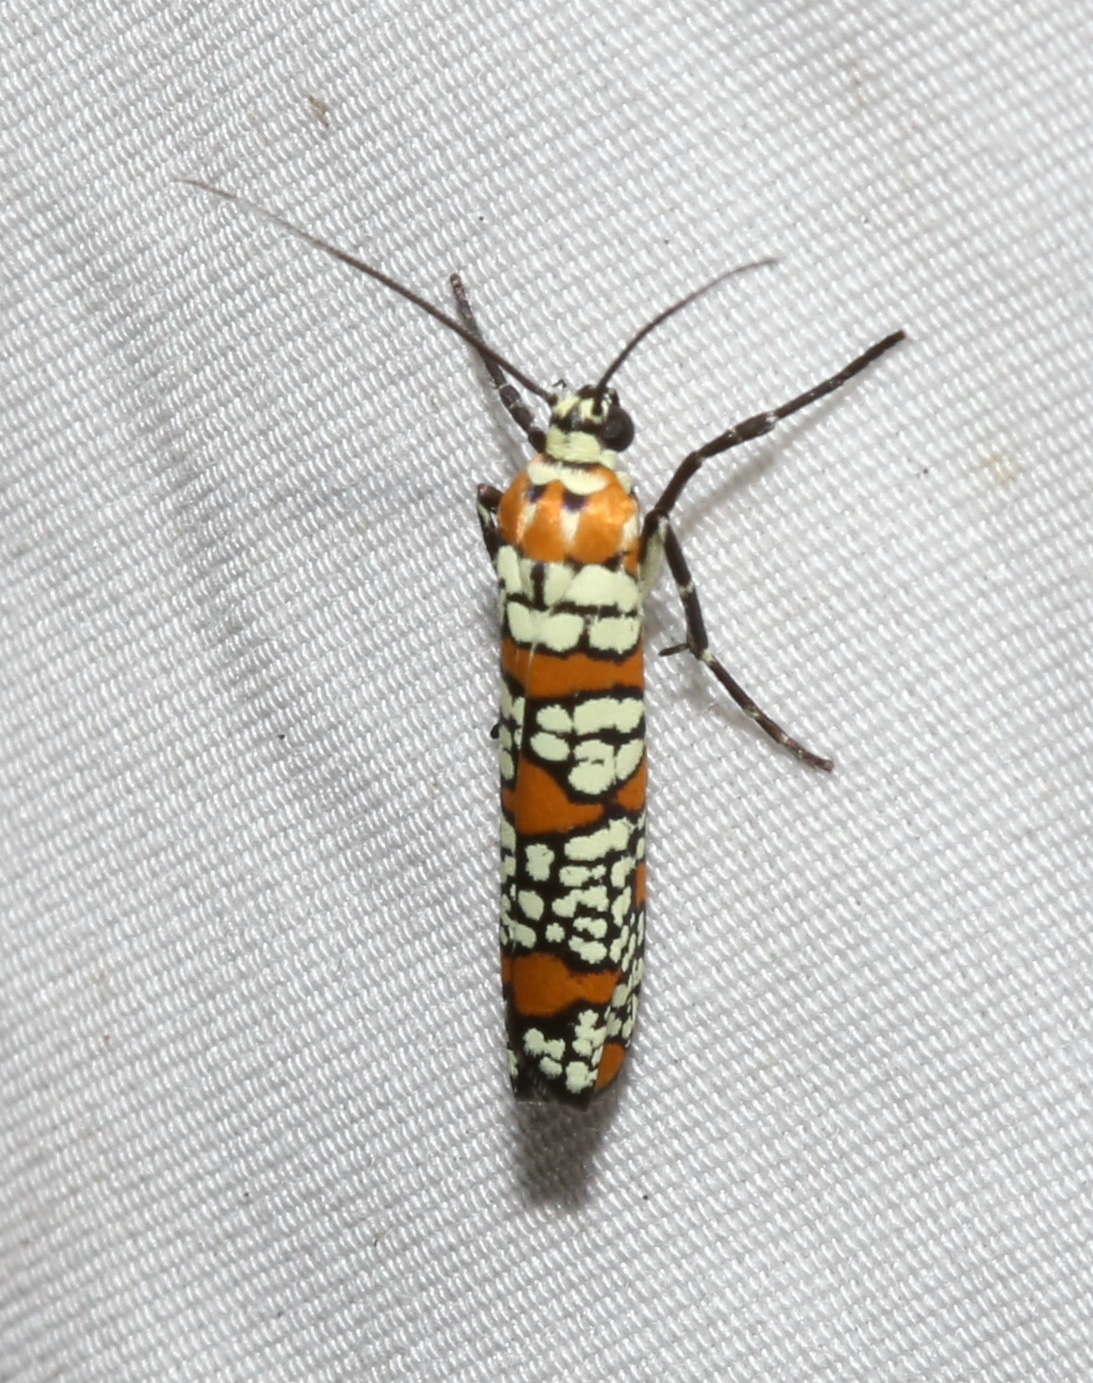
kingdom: Animalia
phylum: Arthropoda
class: Insecta
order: Lepidoptera
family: Attevidae
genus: Atteva
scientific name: Atteva punctella
